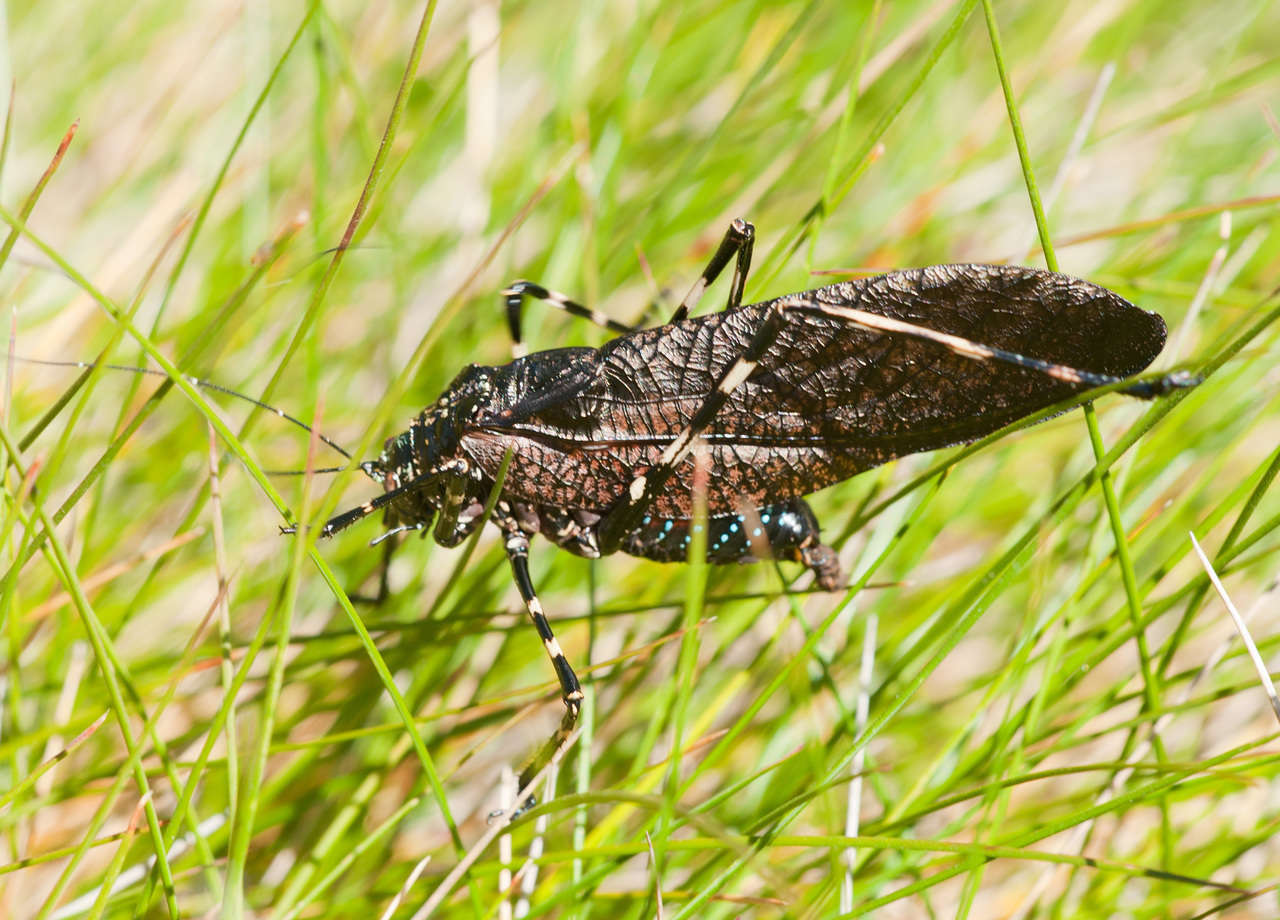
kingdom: Animalia
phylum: Arthropoda
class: Insecta
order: Orthoptera
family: Tettigoniidae
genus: Acripeza
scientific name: Acripeza reticulata
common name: Mountain katydid
